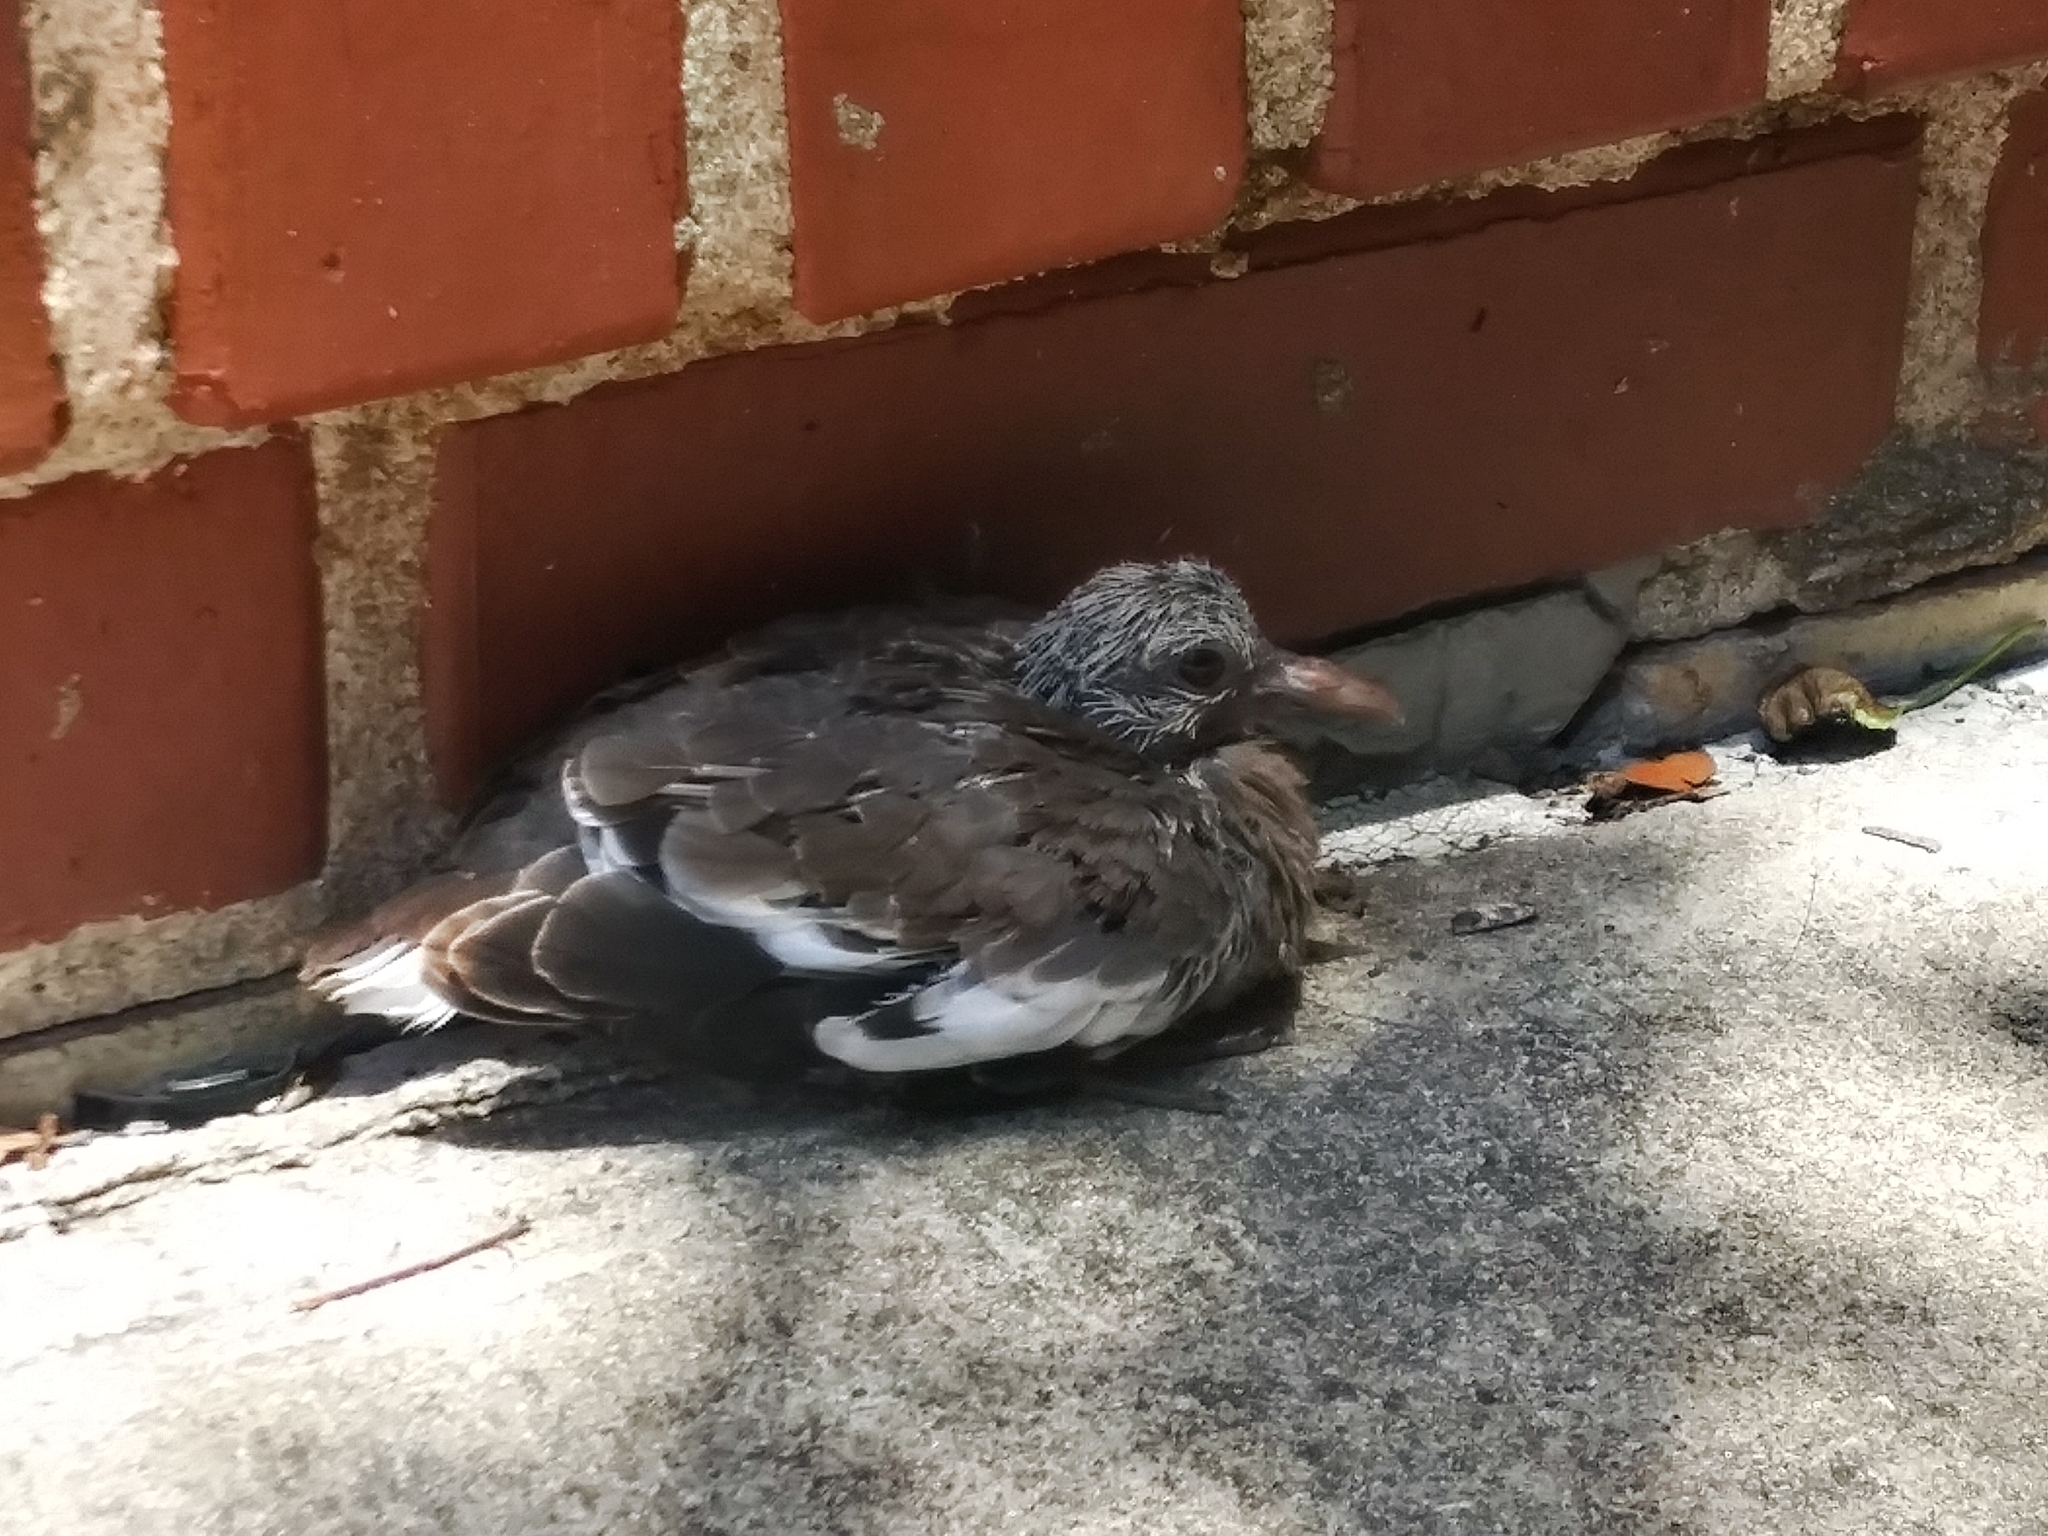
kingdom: Animalia
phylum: Chordata
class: Aves
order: Columbiformes
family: Columbidae
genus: Zenaida
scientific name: Zenaida asiatica
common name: White-winged dove
